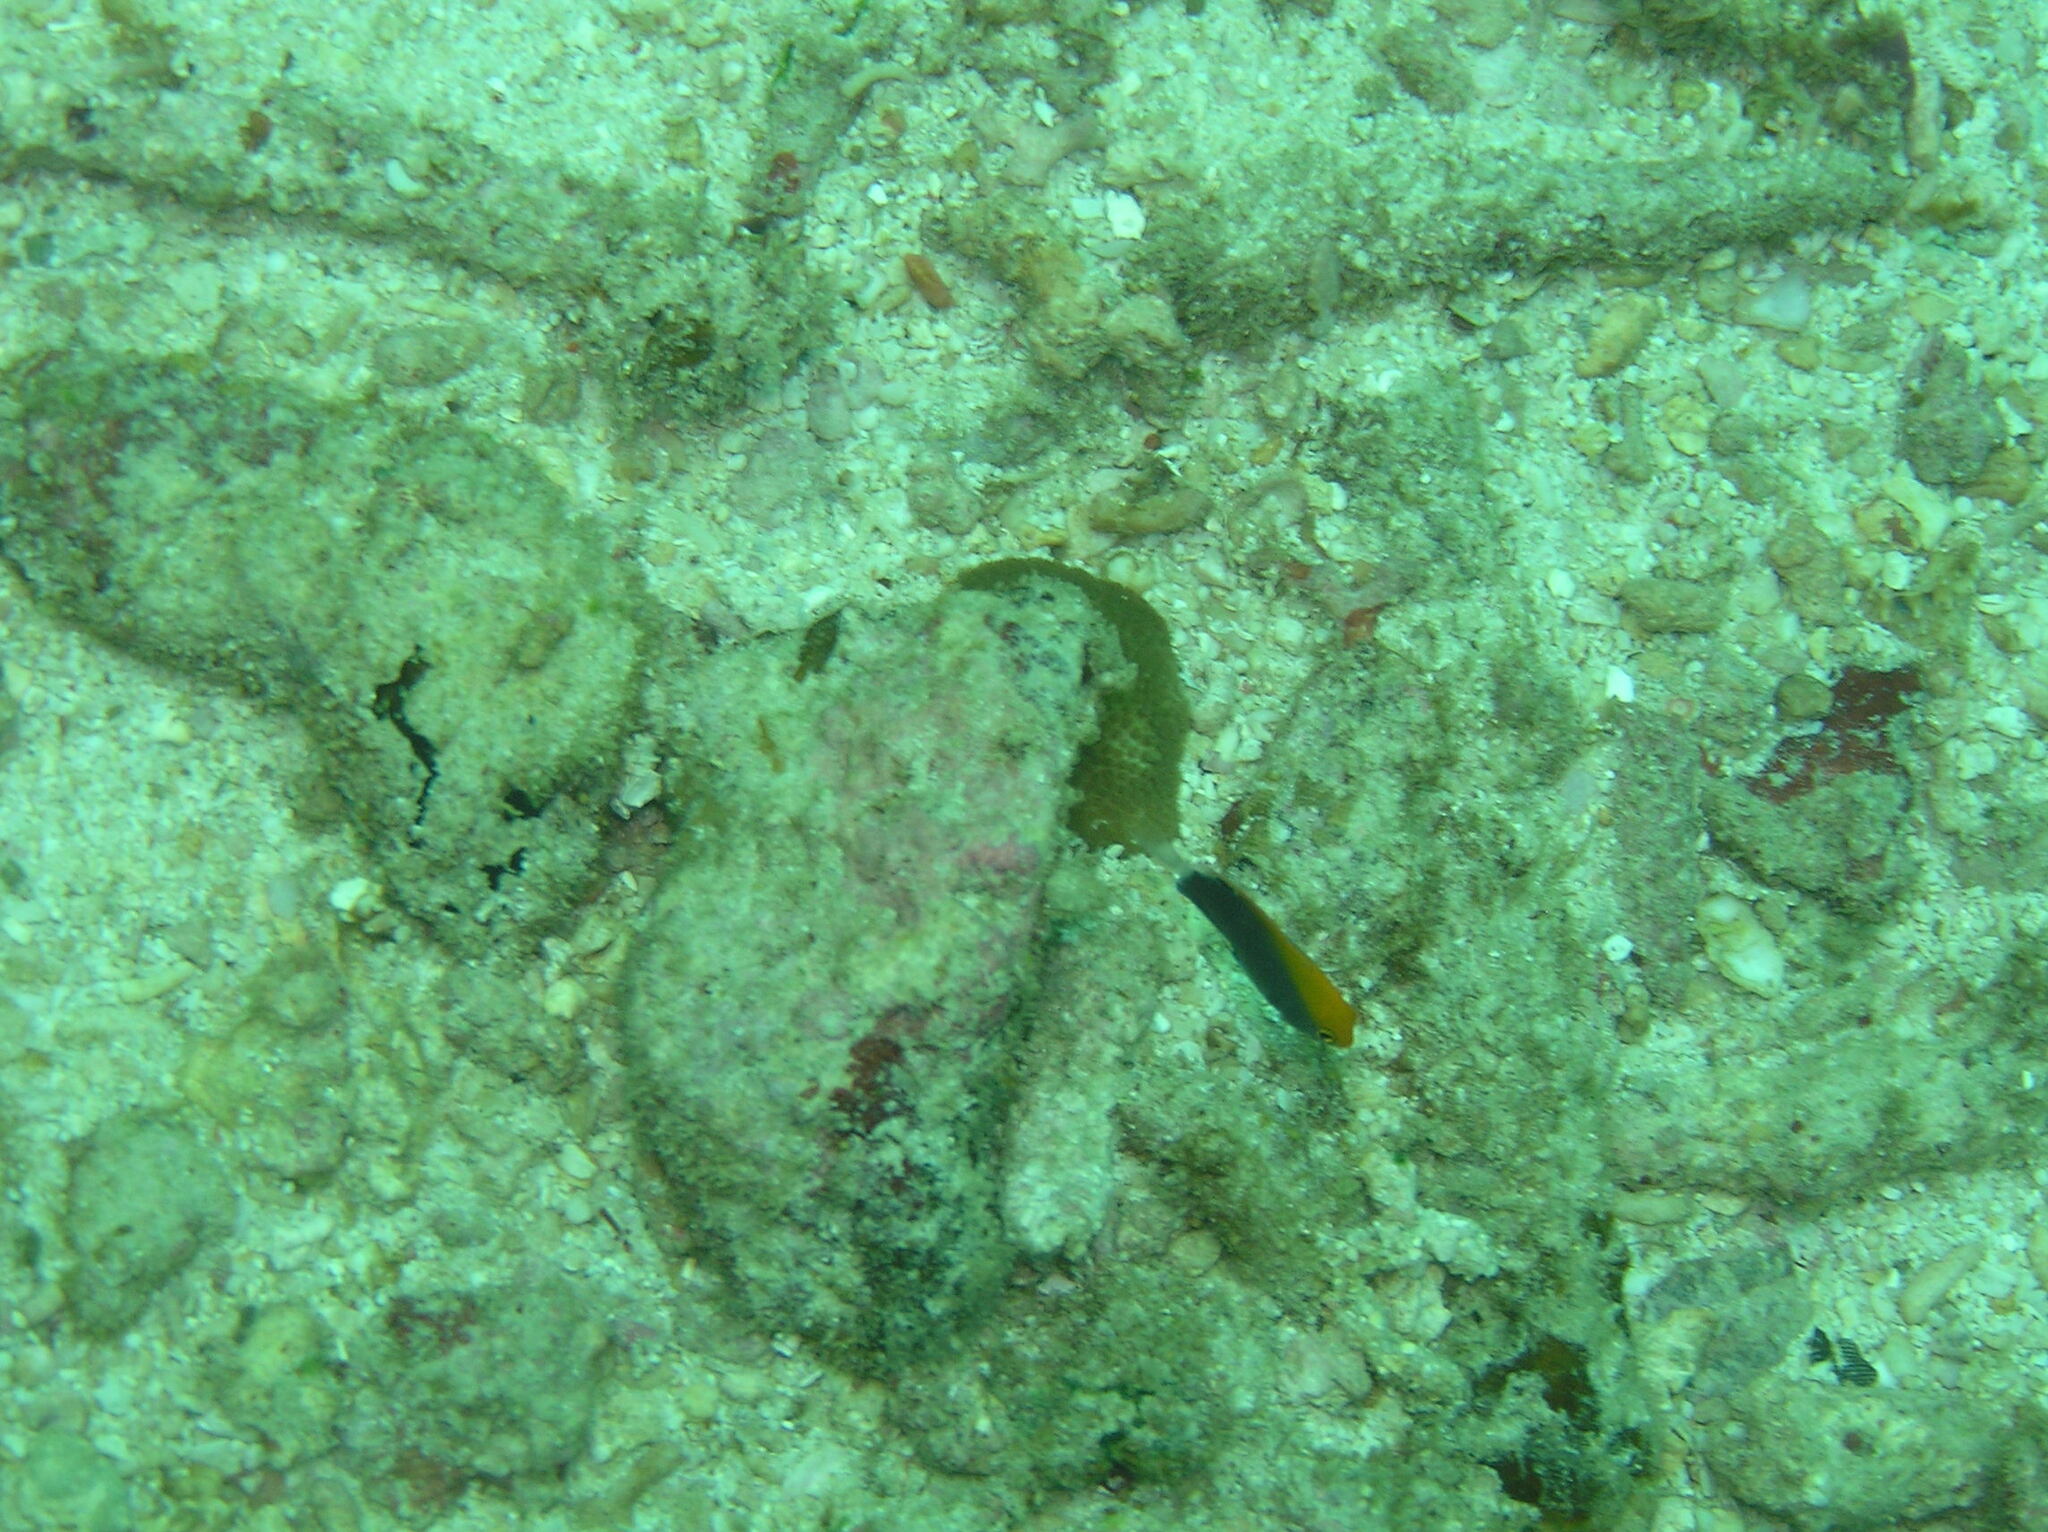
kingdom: Animalia
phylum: Chordata
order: Perciformes
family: Pomacentridae
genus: Pomacentrus
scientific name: Pomacentrus chrysurus
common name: White-tail damsel
